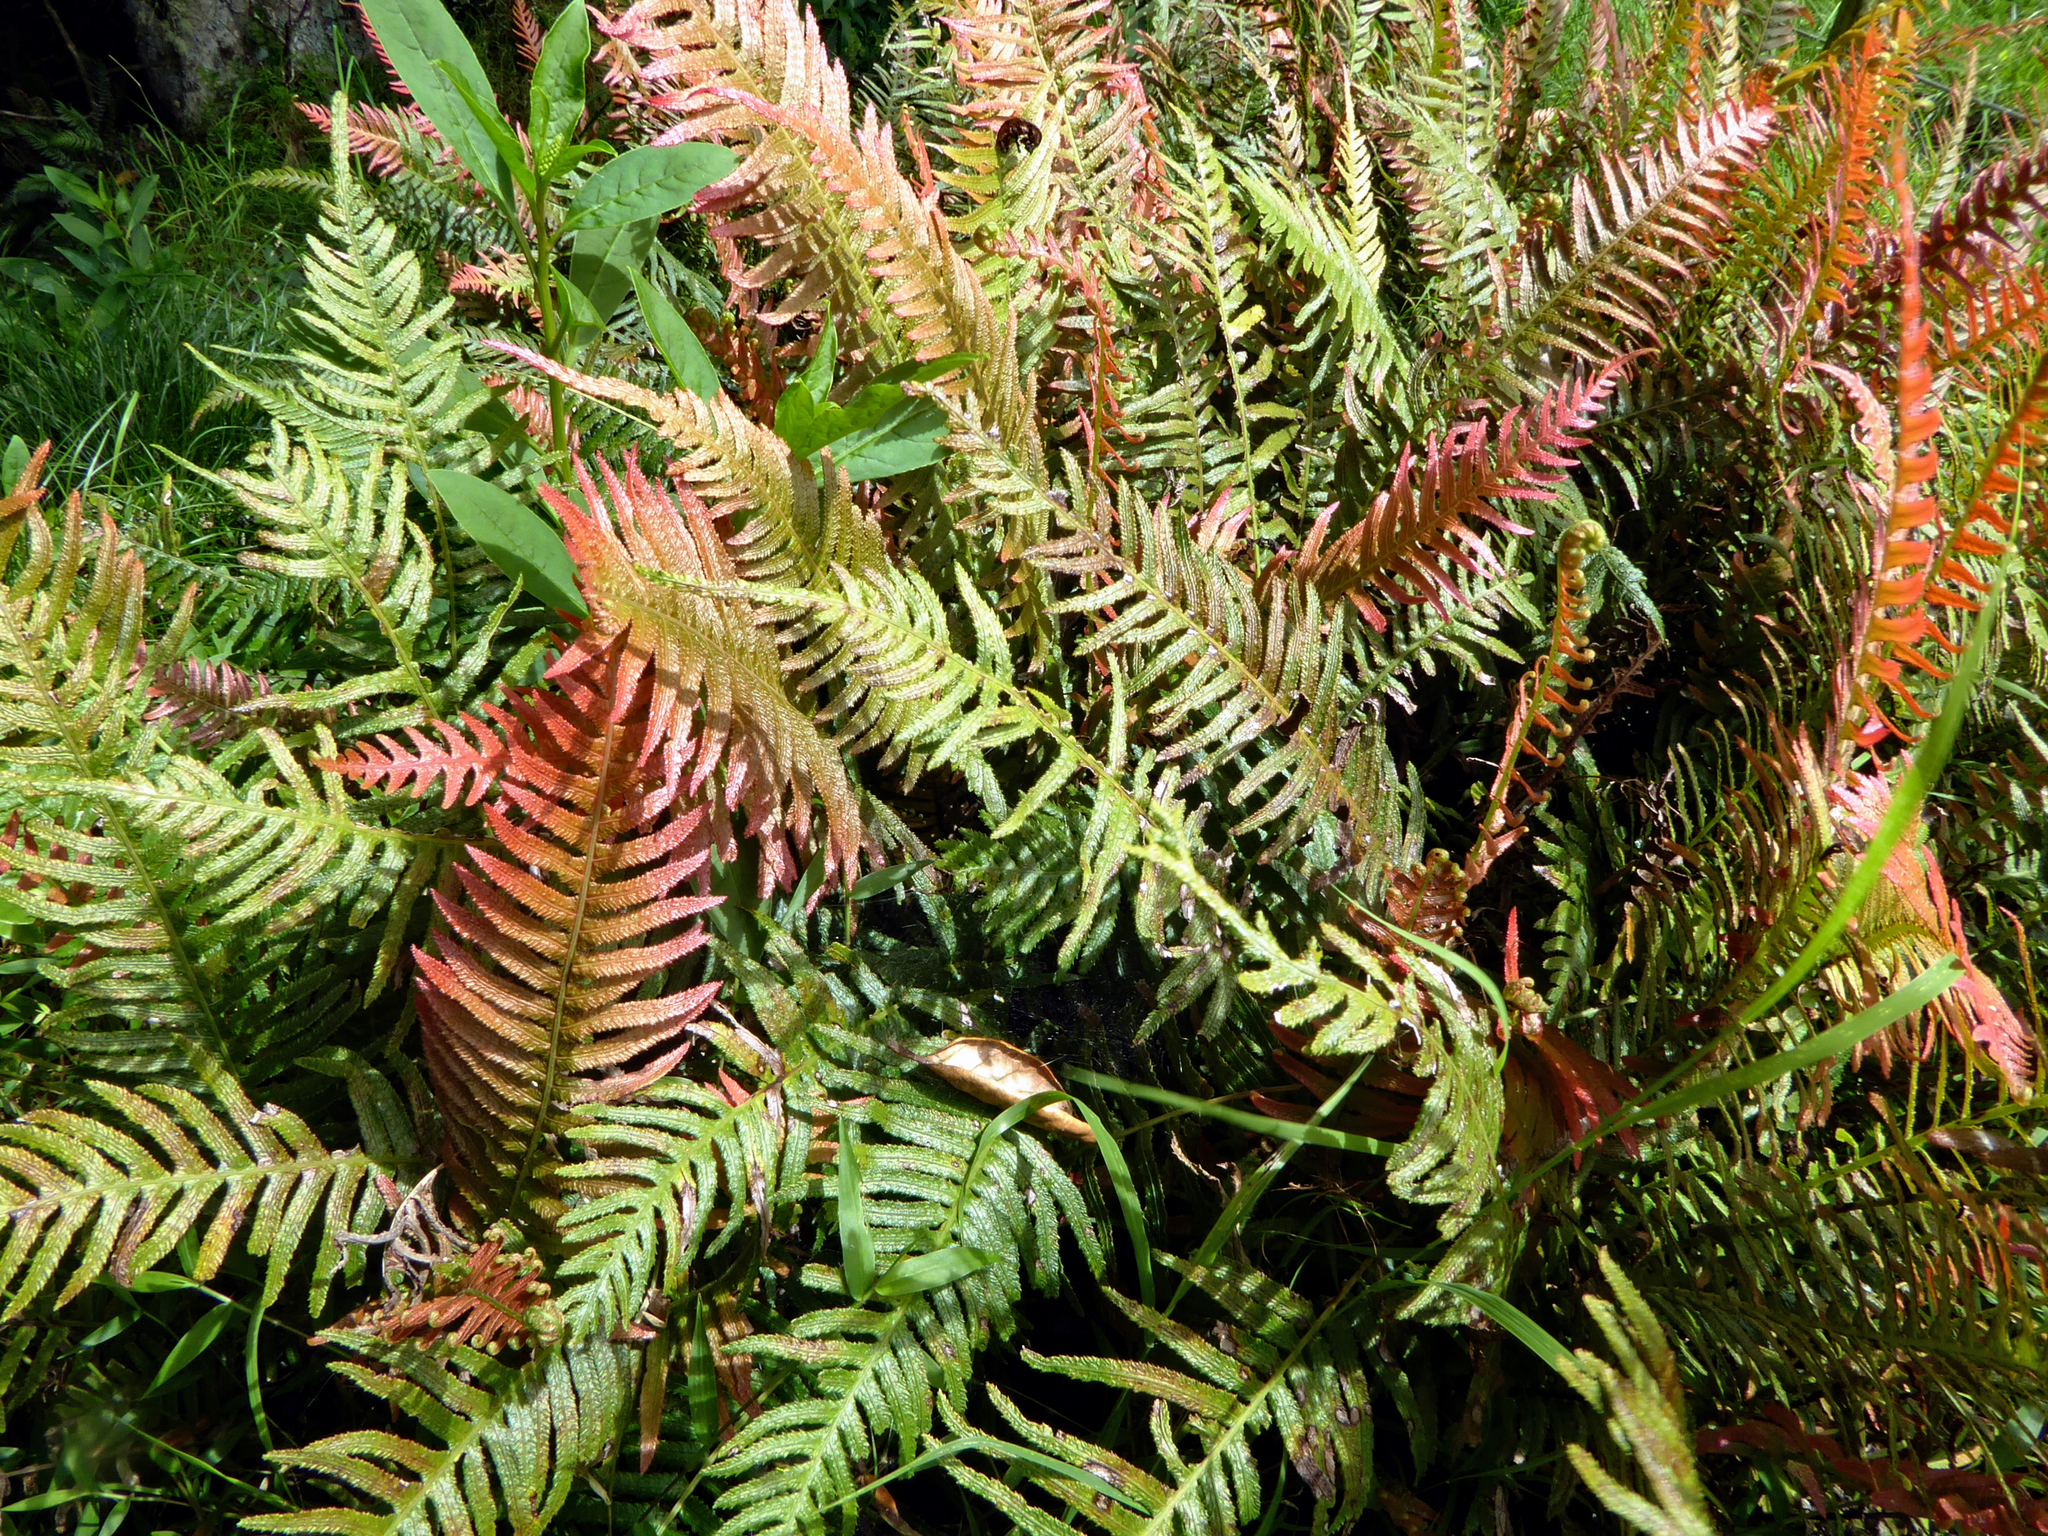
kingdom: Plantae
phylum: Tracheophyta
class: Polypodiopsida
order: Polypodiales
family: Blechnaceae
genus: Doodia
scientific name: Doodia australis
